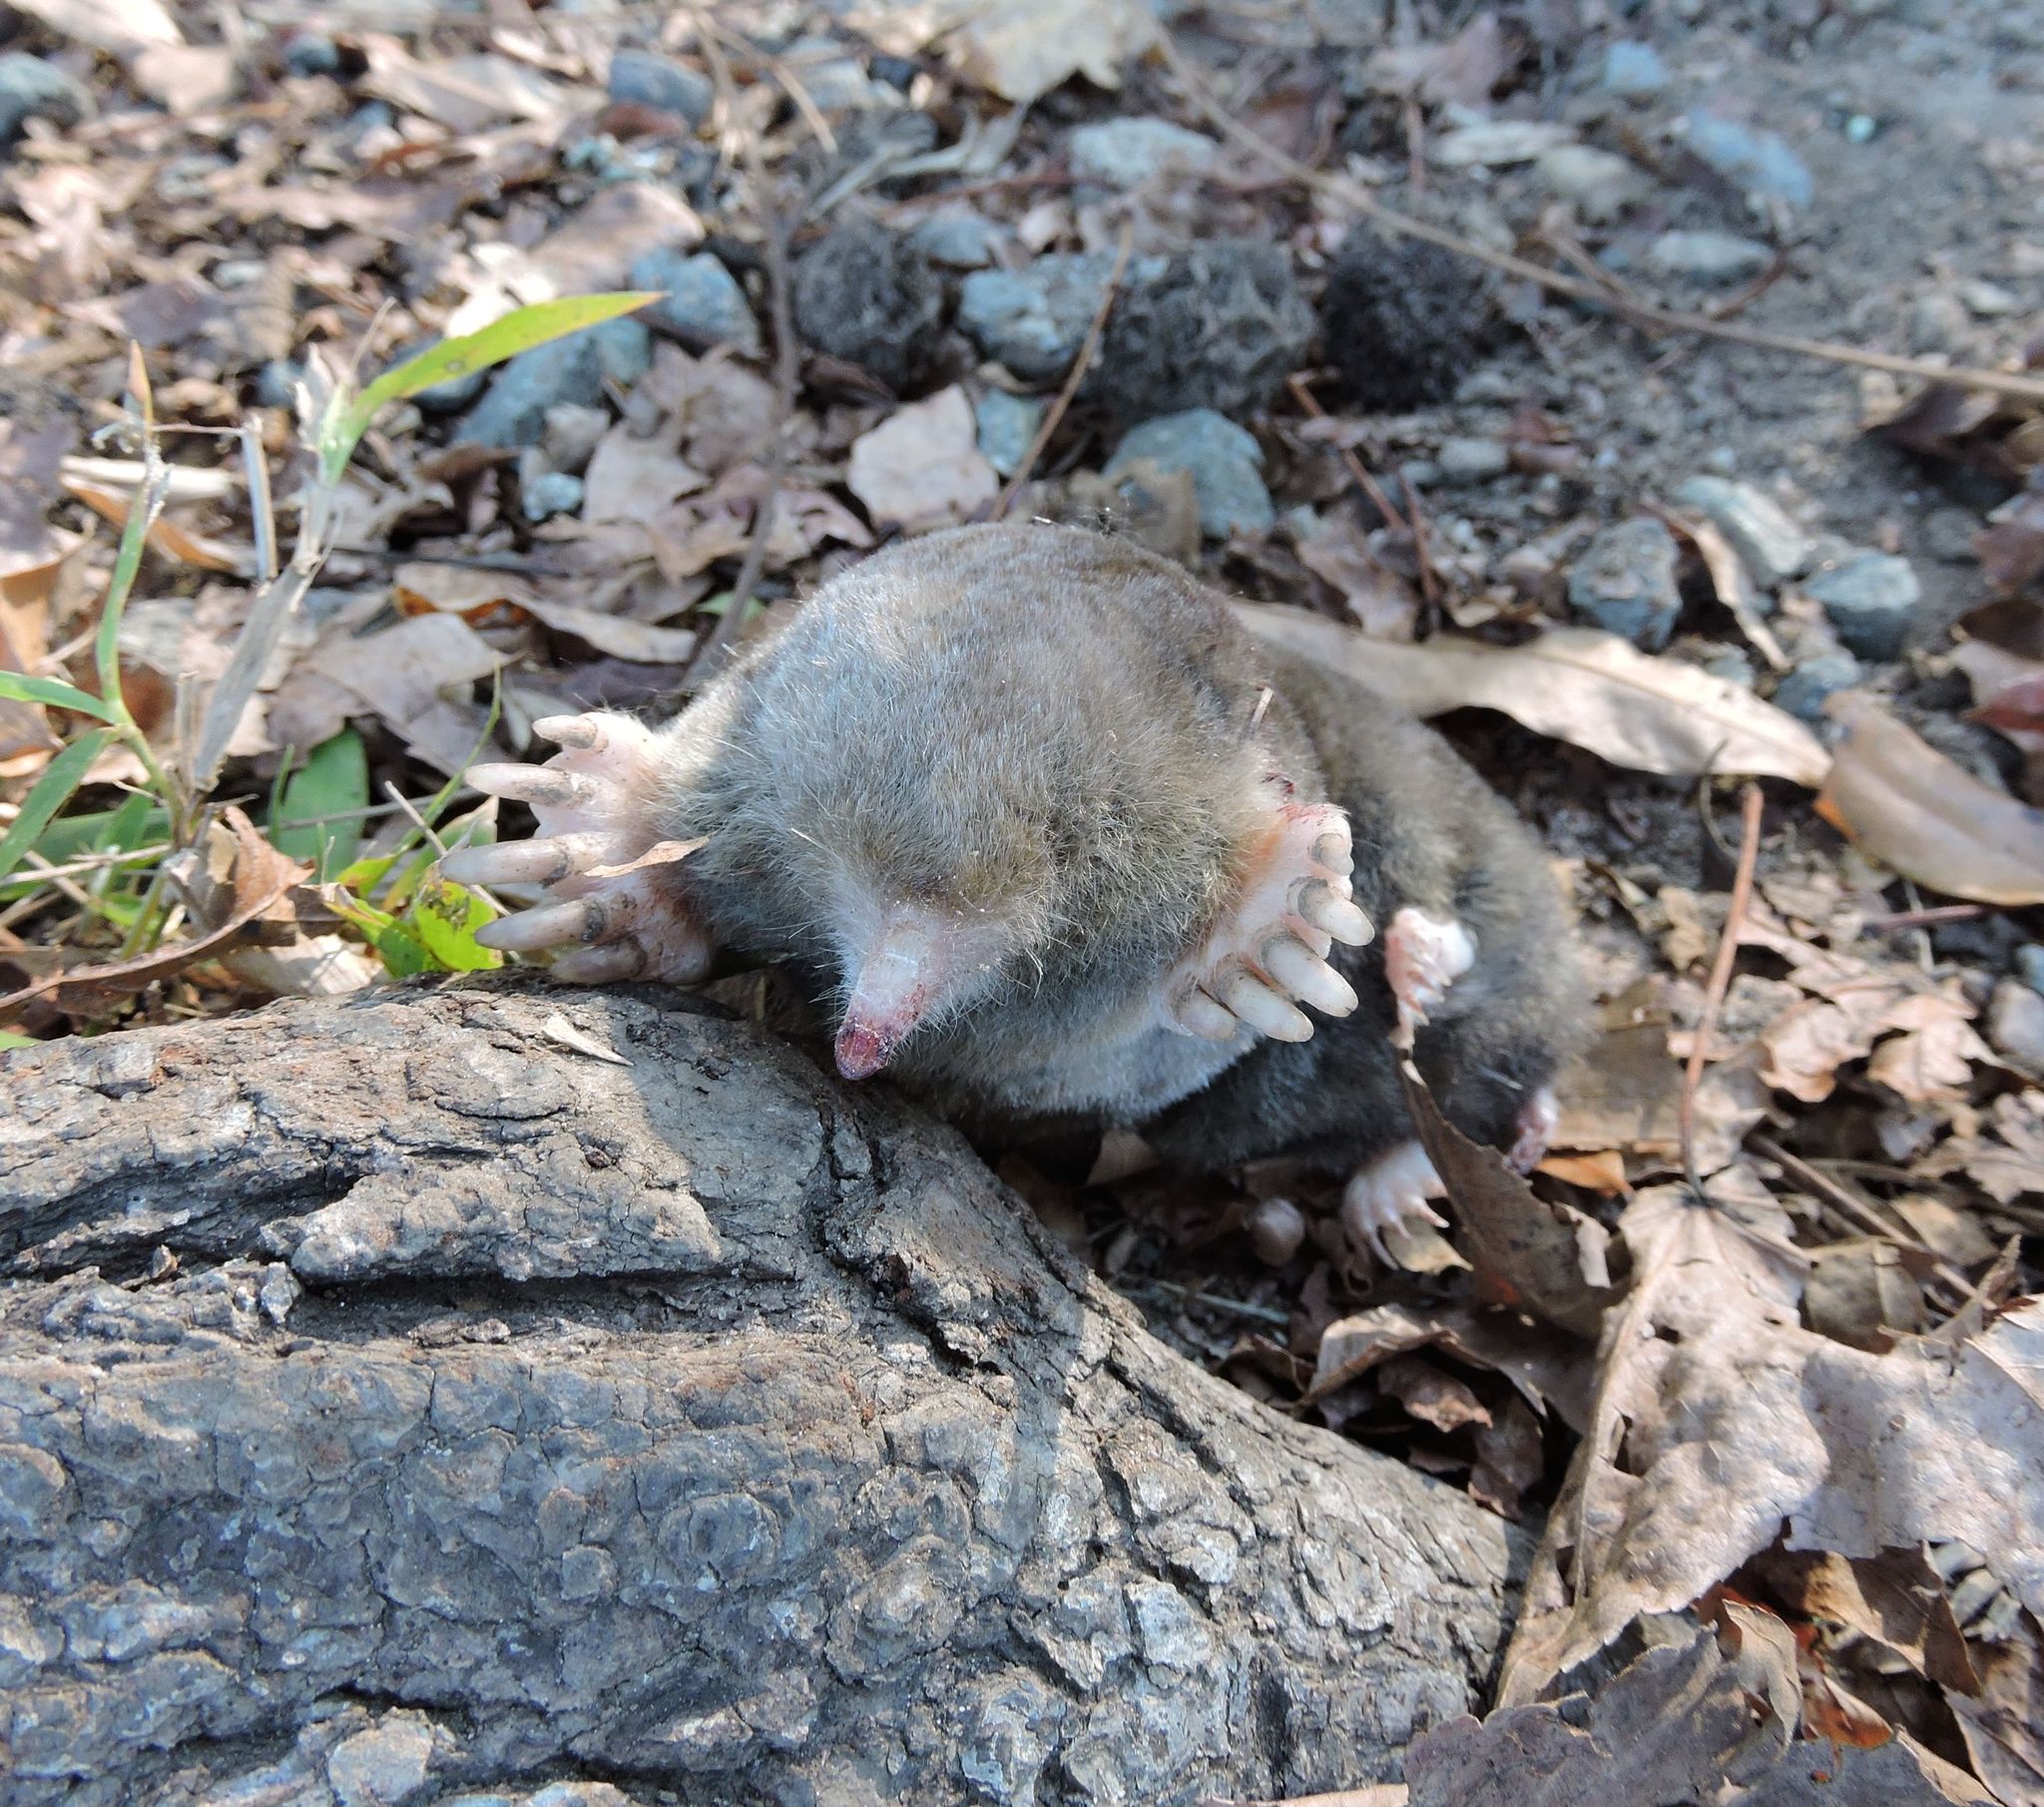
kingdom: Animalia
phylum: Chordata
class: Mammalia
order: Soricomorpha
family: Talpidae
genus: Scalopus
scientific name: Scalopus aquaticus
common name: Eastern mole
